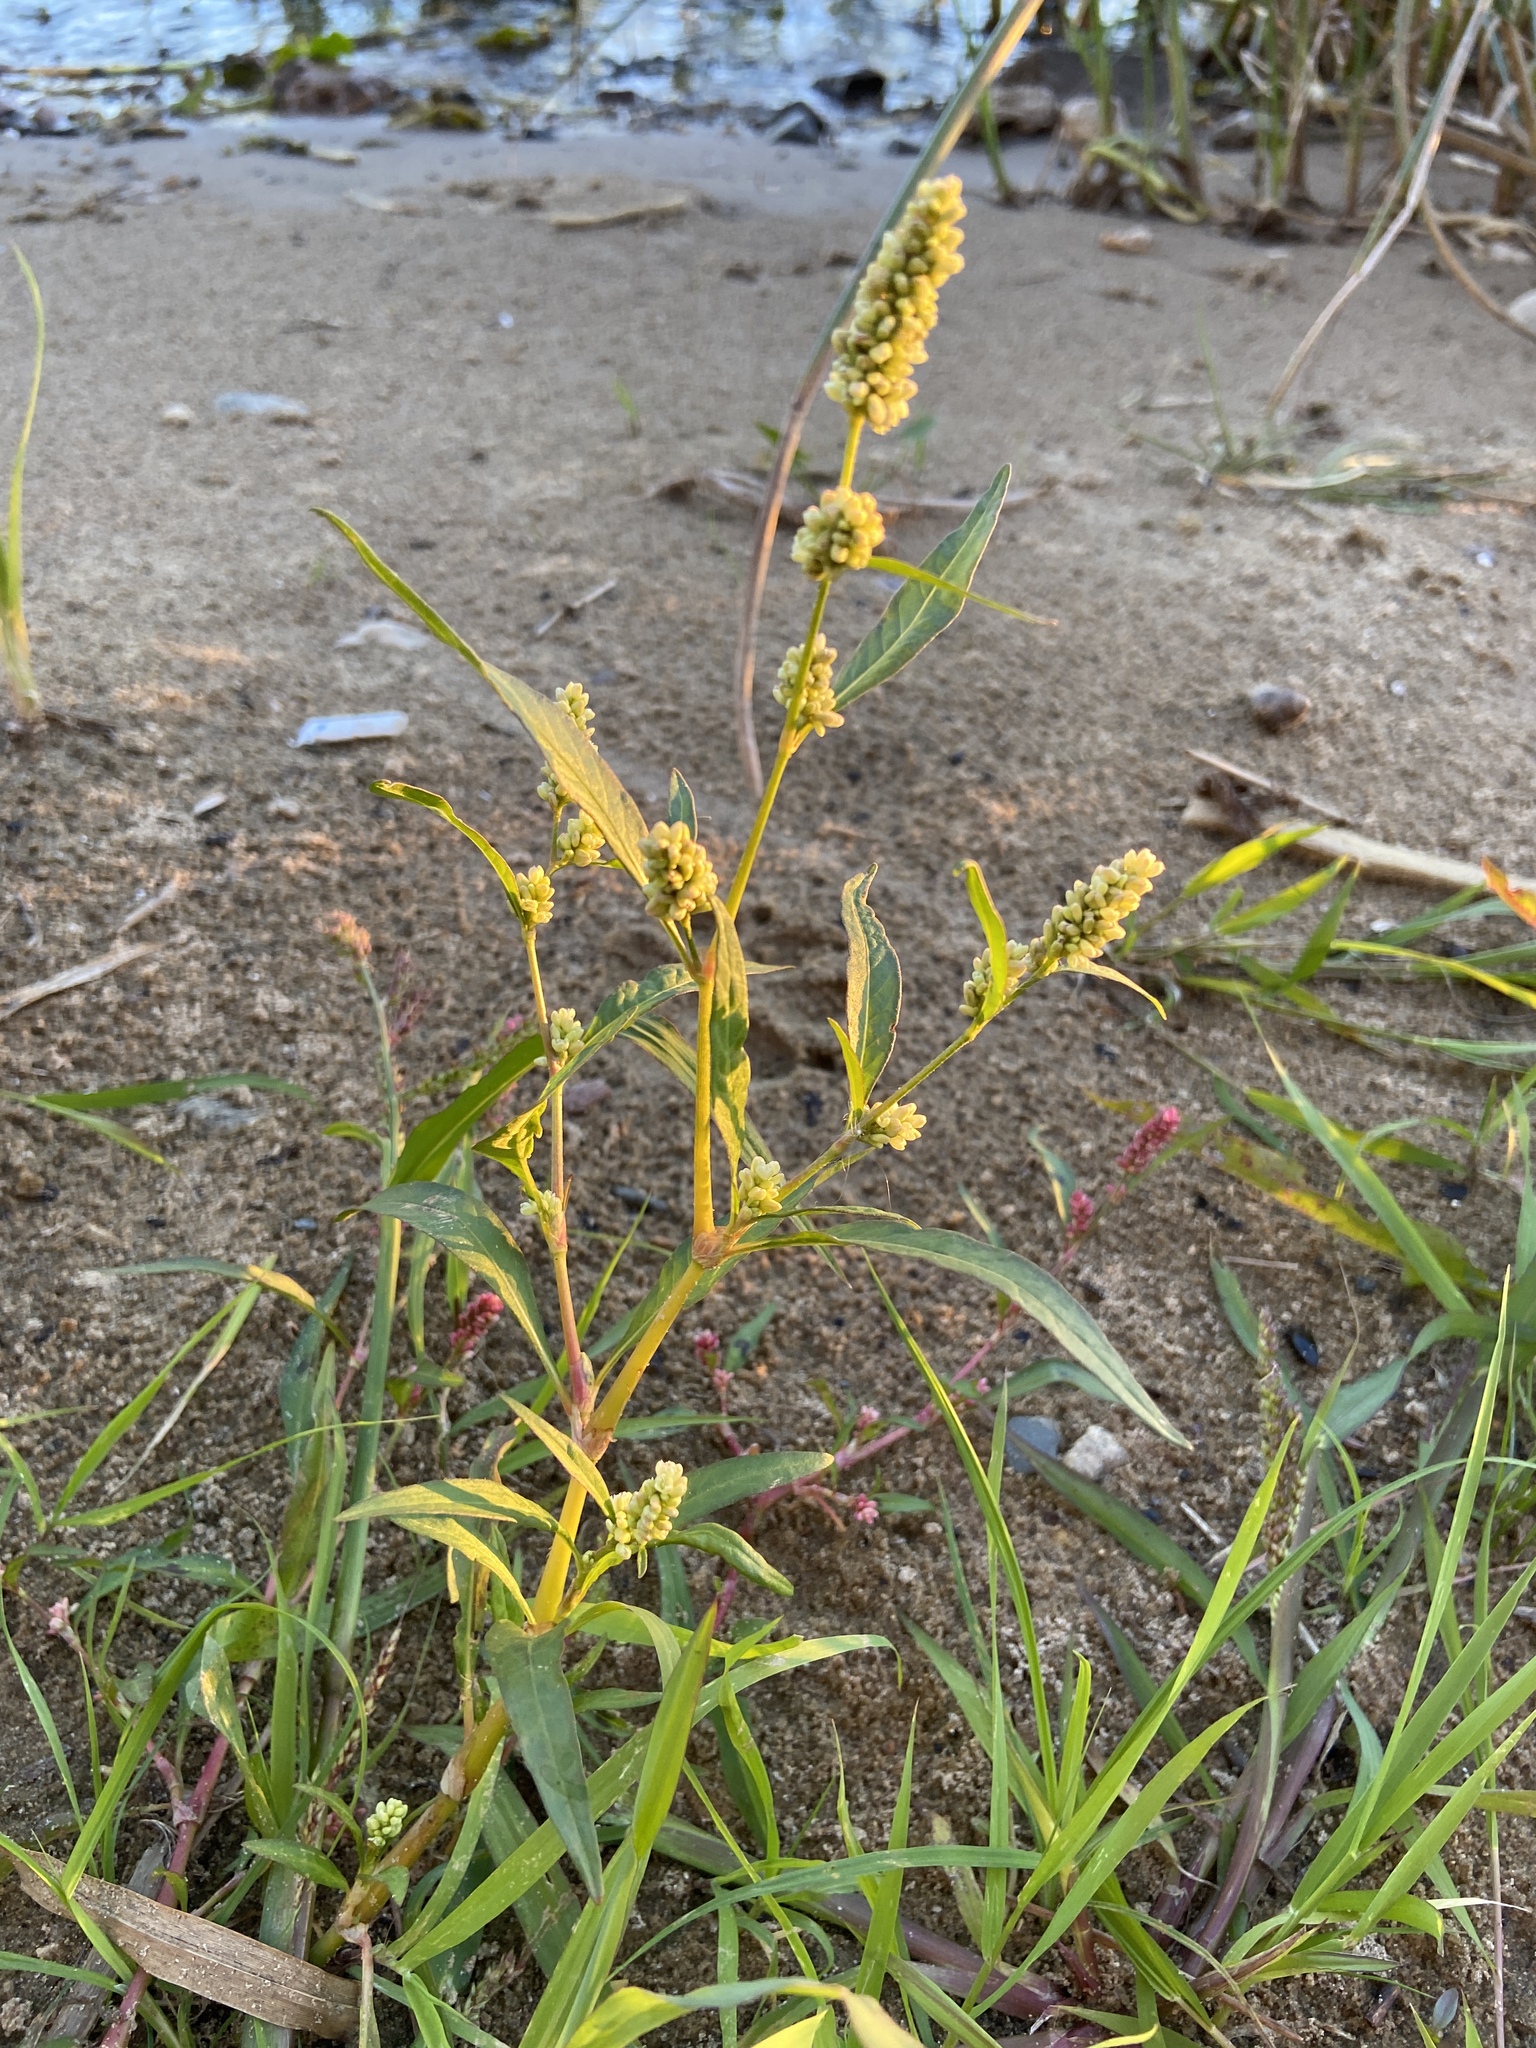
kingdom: Plantae
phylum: Tracheophyta
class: Magnoliopsida
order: Caryophyllales
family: Polygonaceae
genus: Persicaria
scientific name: Persicaria lapathifolia
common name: Curlytop knotweed
